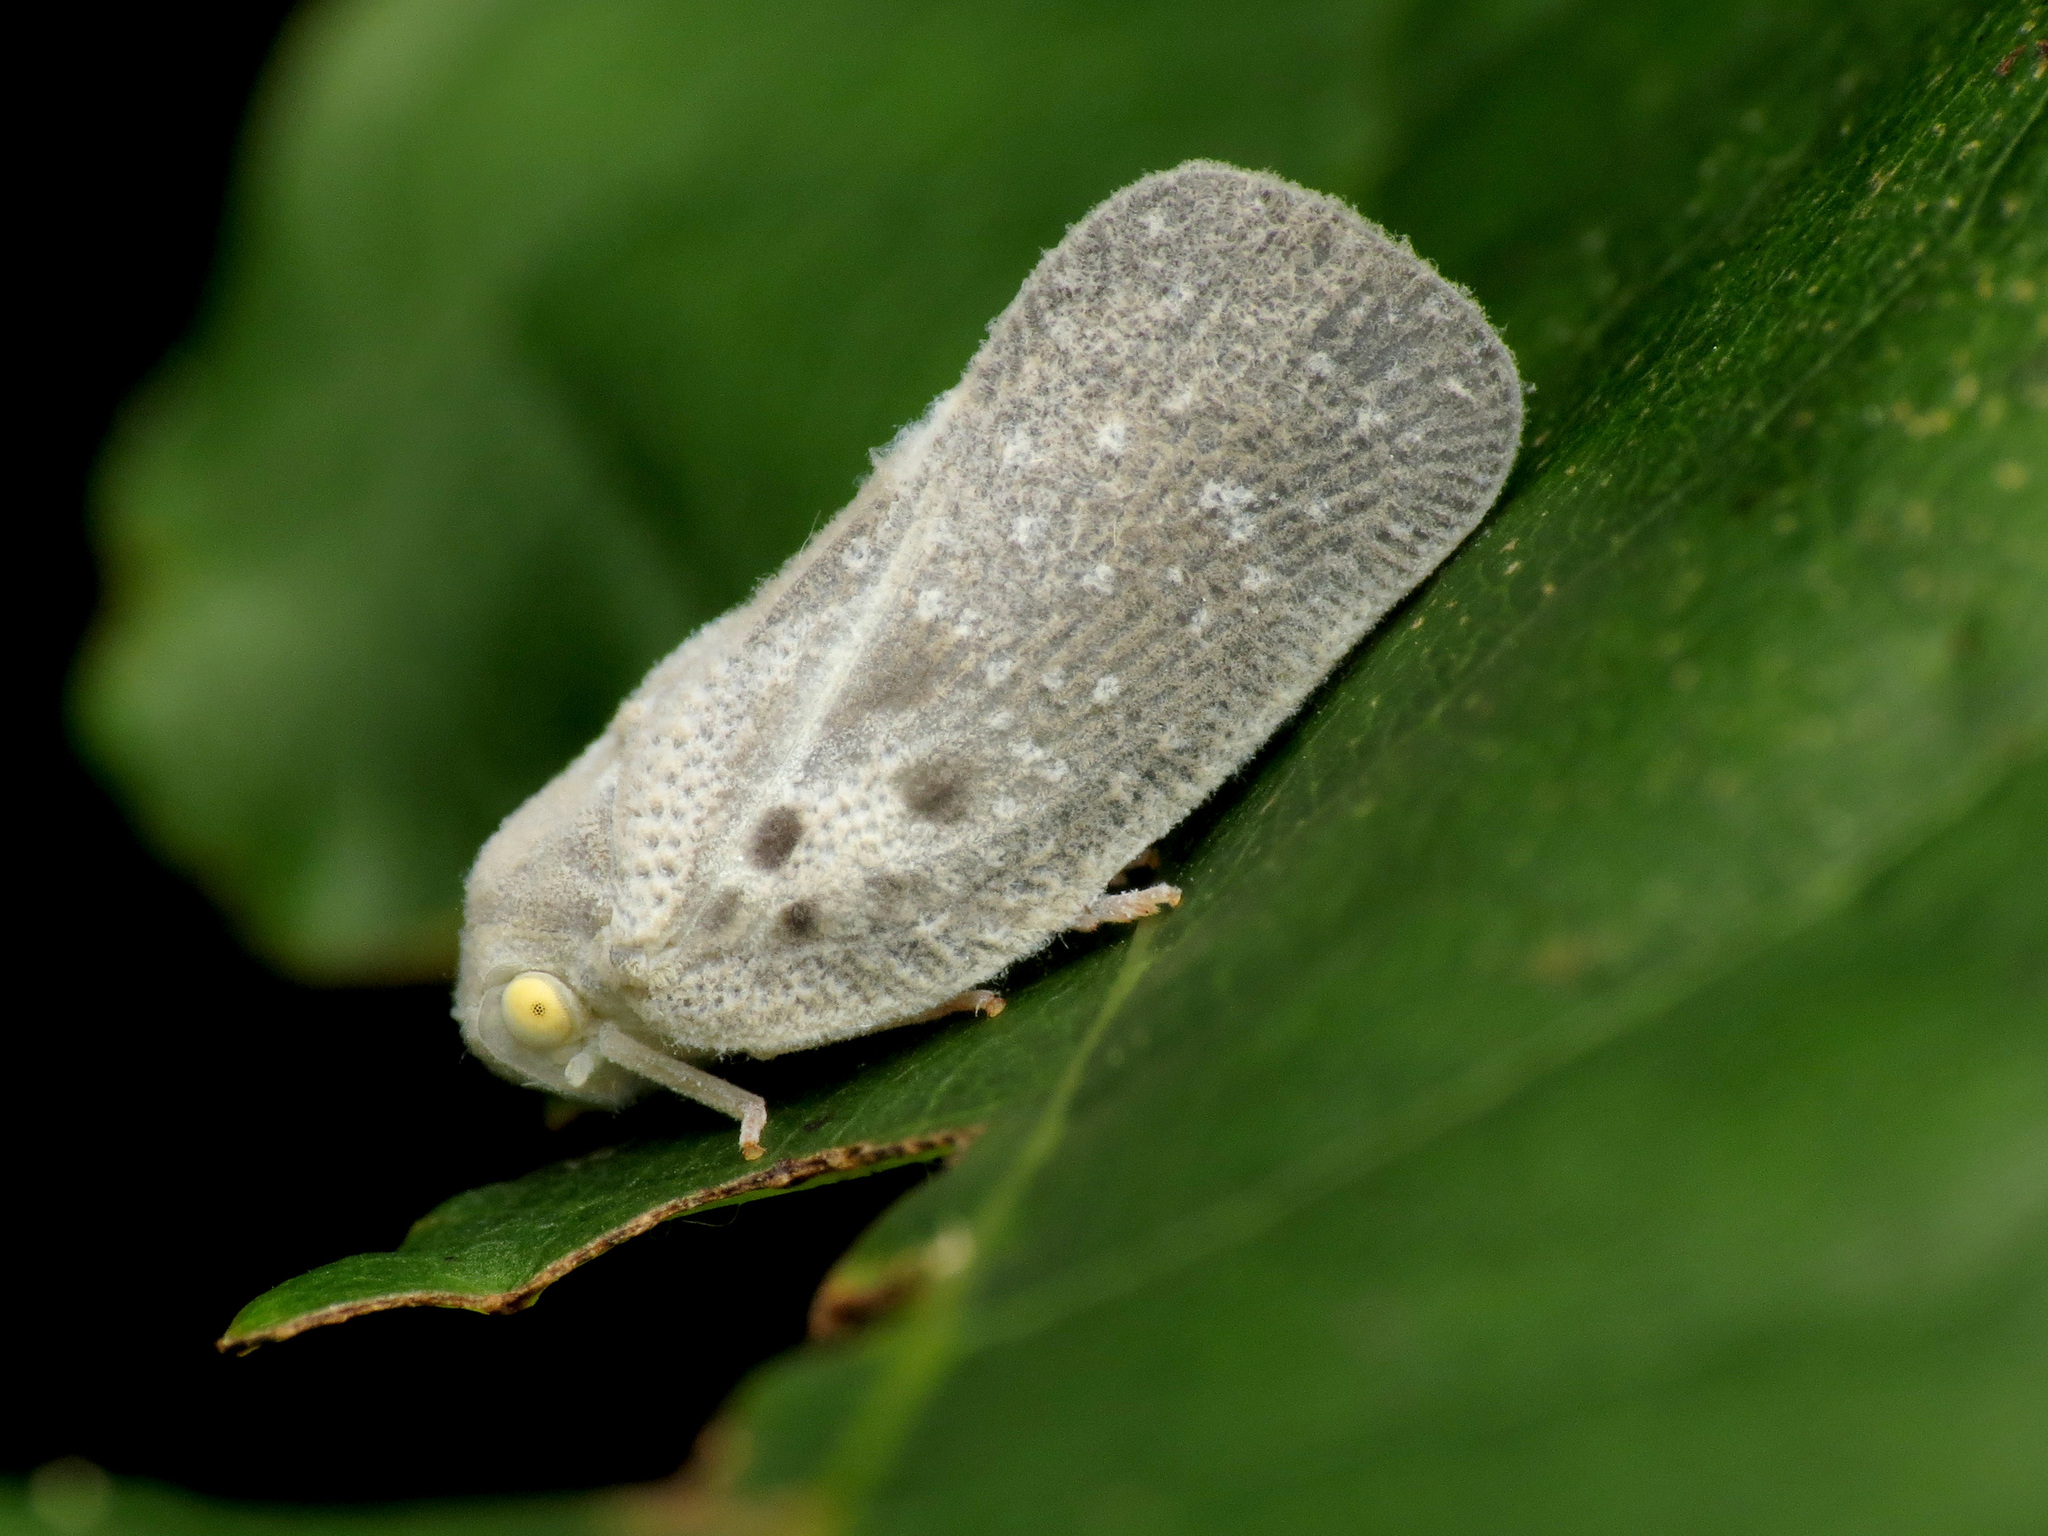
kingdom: Animalia
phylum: Arthropoda
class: Insecta
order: Hemiptera
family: Flatidae
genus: Metcalfa
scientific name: Metcalfa pruinosa
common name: Citrus flatid planthopper
